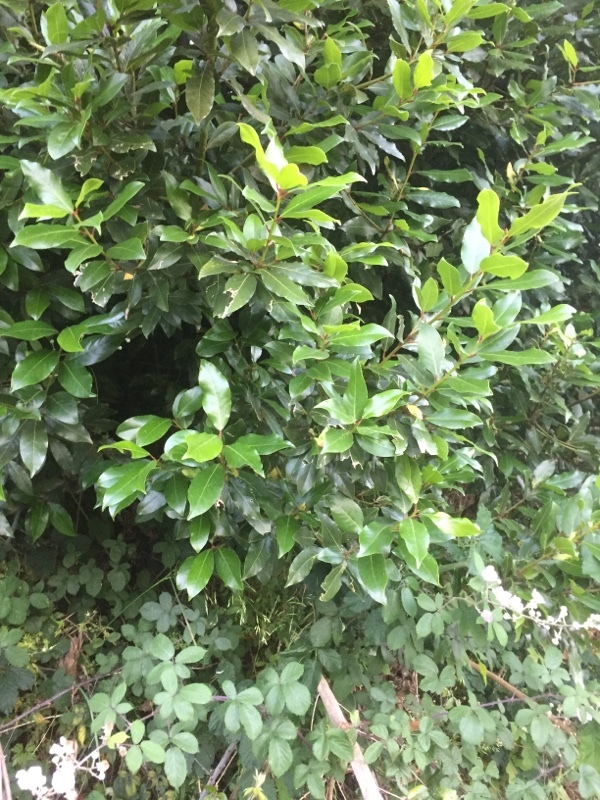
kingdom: Plantae
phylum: Tracheophyta
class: Magnoliopsida
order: Laurales
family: Lauraceae
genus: Laurus
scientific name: Laurus nobilis
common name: Bay
